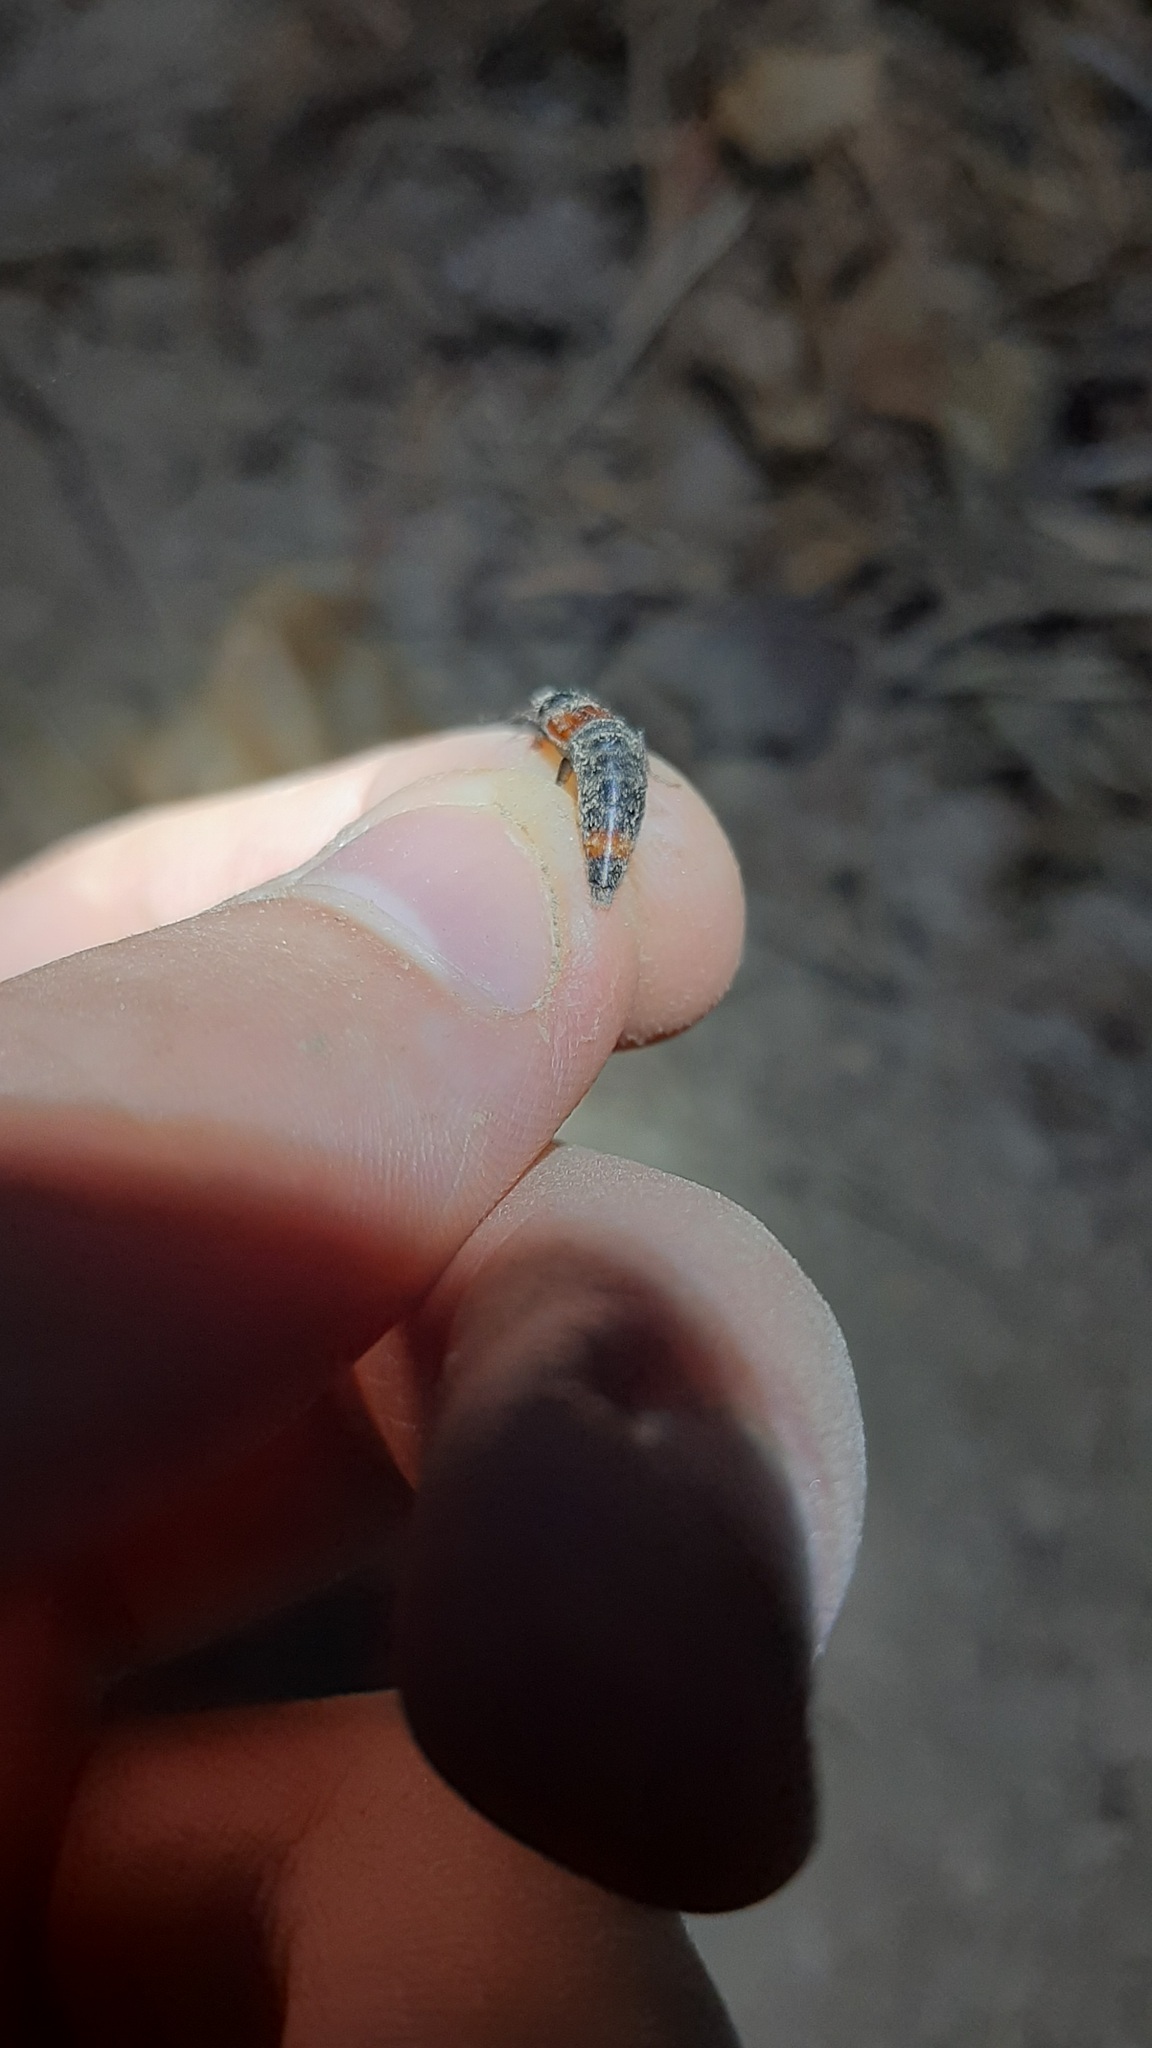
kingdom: Animalia
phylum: Arthropoda
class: Insecta
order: Coleoptera
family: Staphylinidae
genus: Astrapaeus
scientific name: Astrapaeus ulmi
